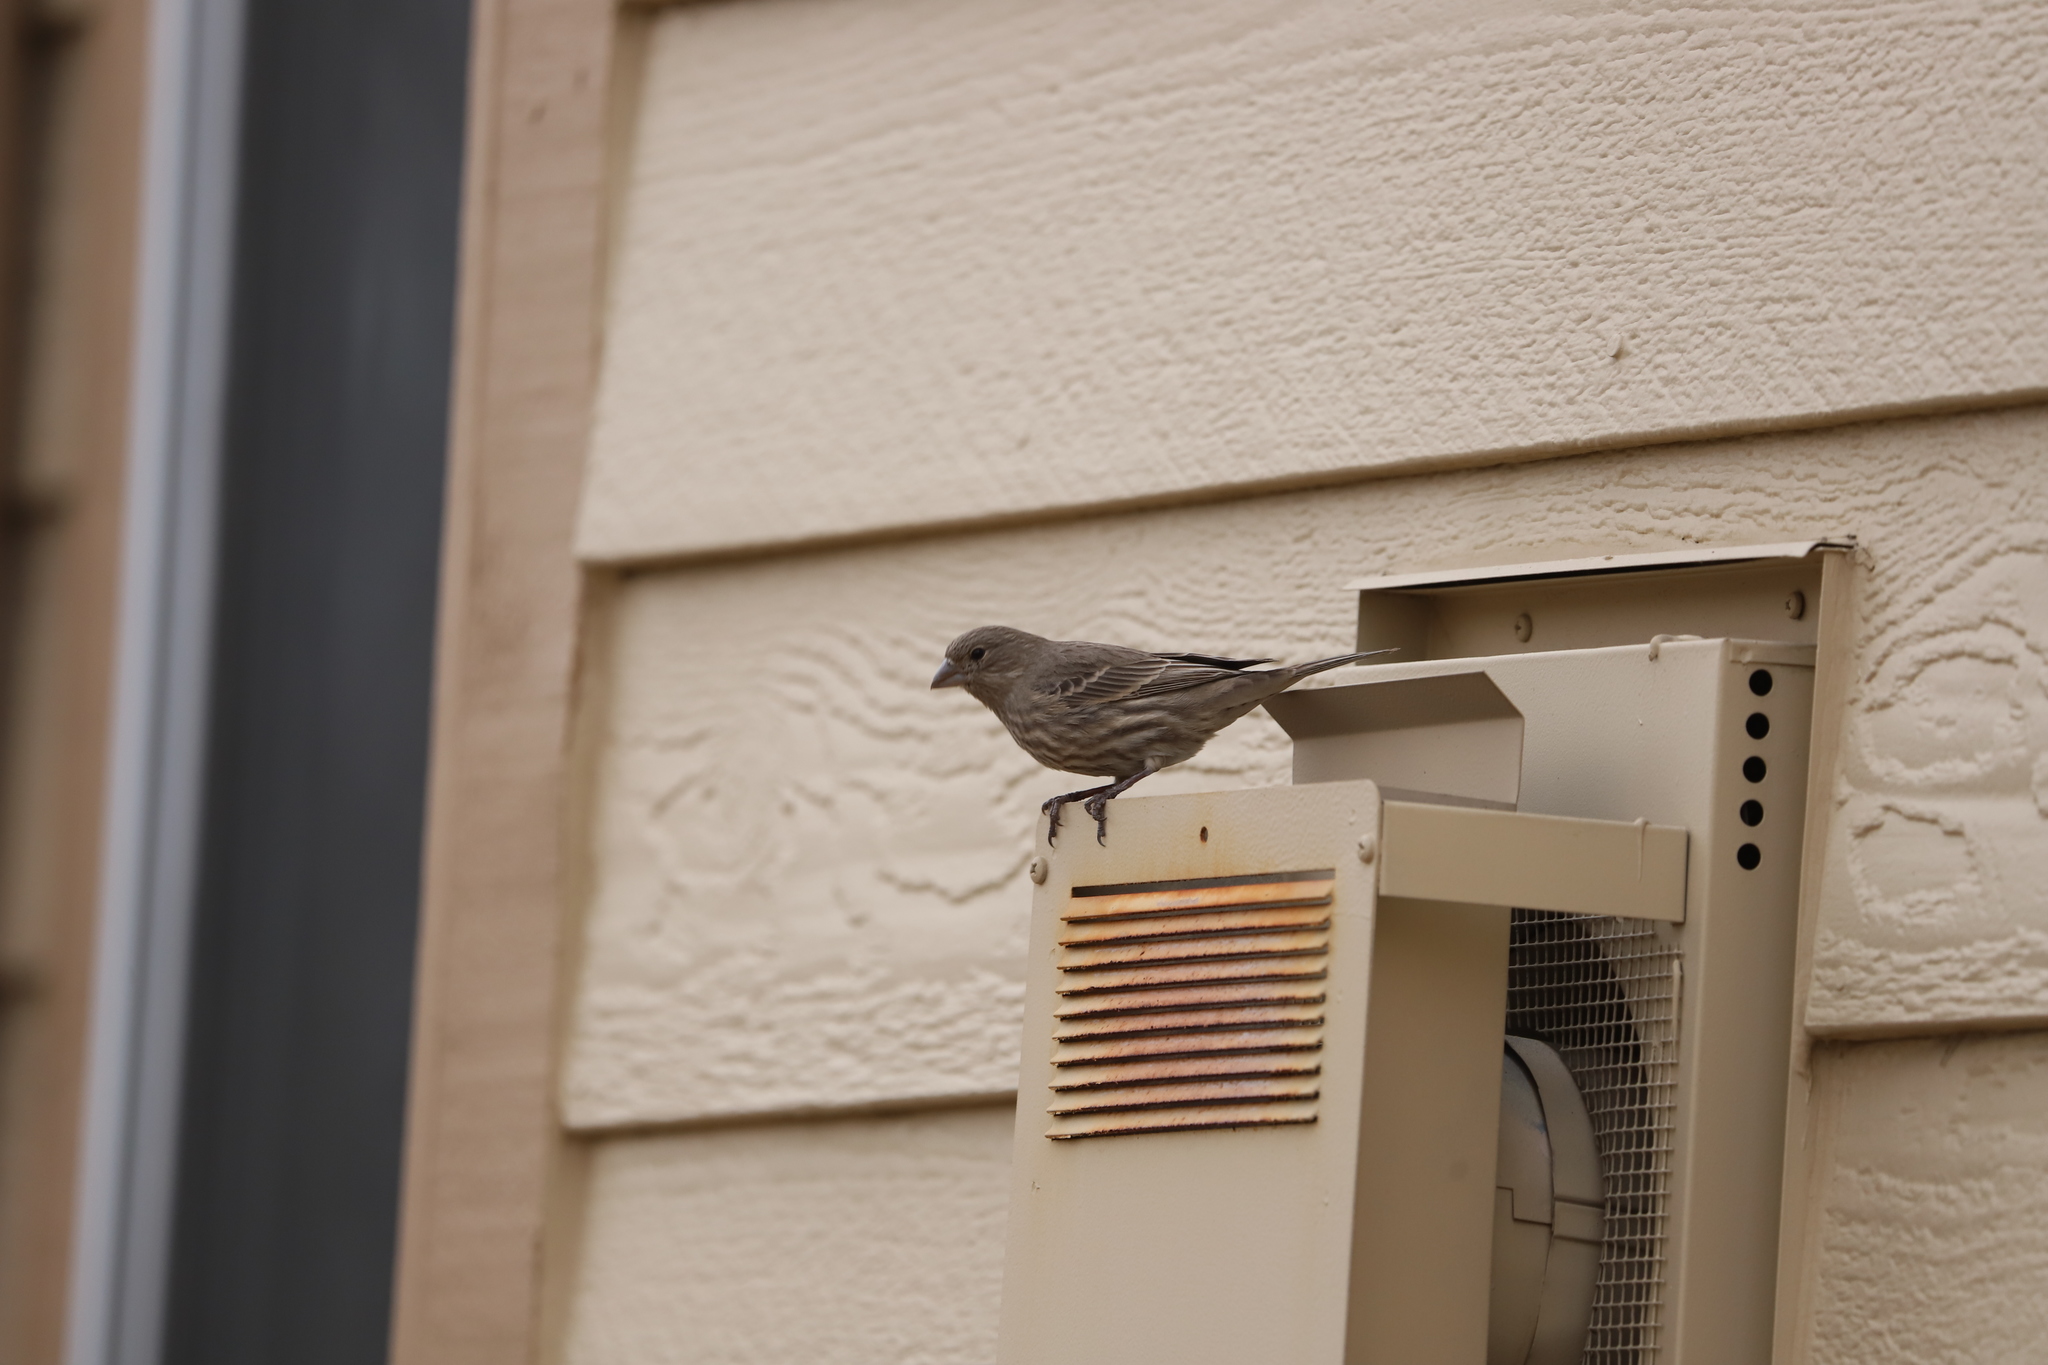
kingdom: Animalia
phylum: Chordata
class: Aves
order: Passeriformes
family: Fringillidae
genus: Haemorhous
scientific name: Haemorhous mexicanus
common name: House finch
